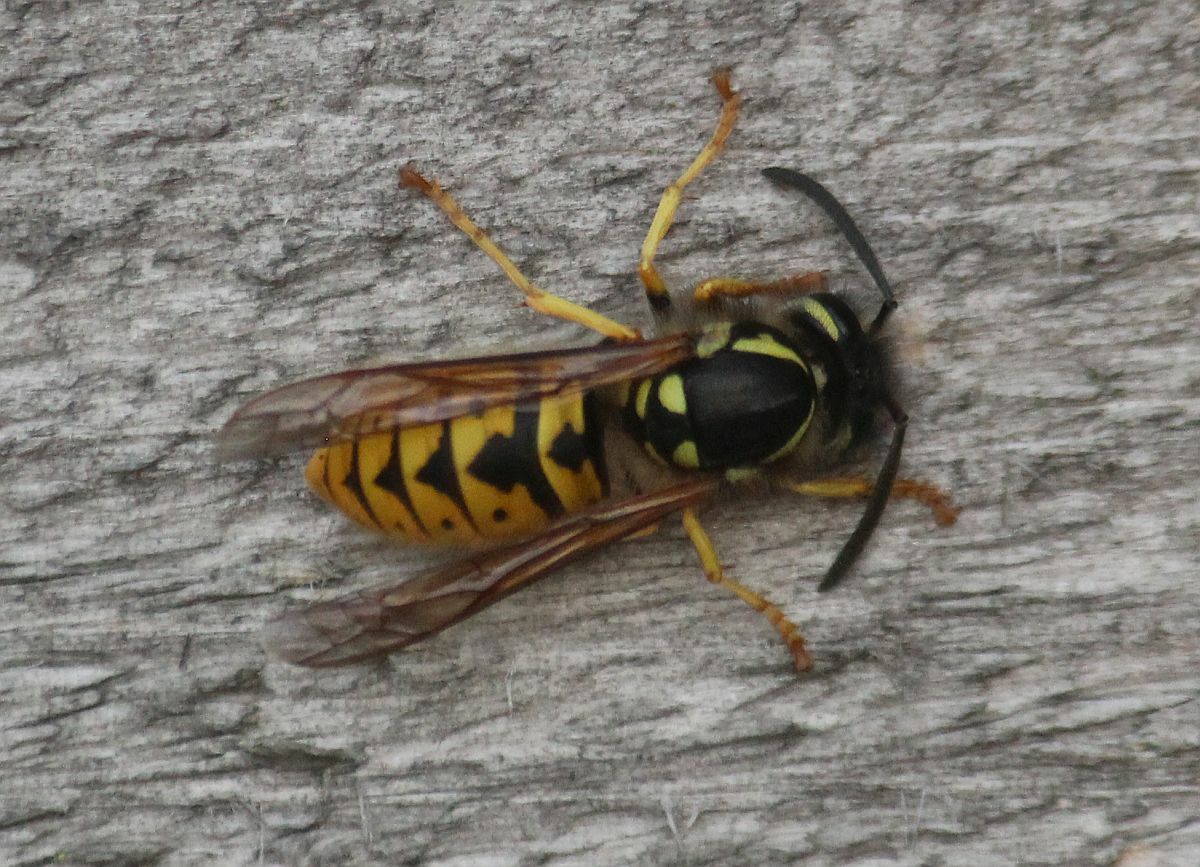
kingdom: Animalia
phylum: Arthropoda
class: Insecta
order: Hymenoptera
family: Vespidae
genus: Vespula
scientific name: Vespula germanica
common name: German wasp
